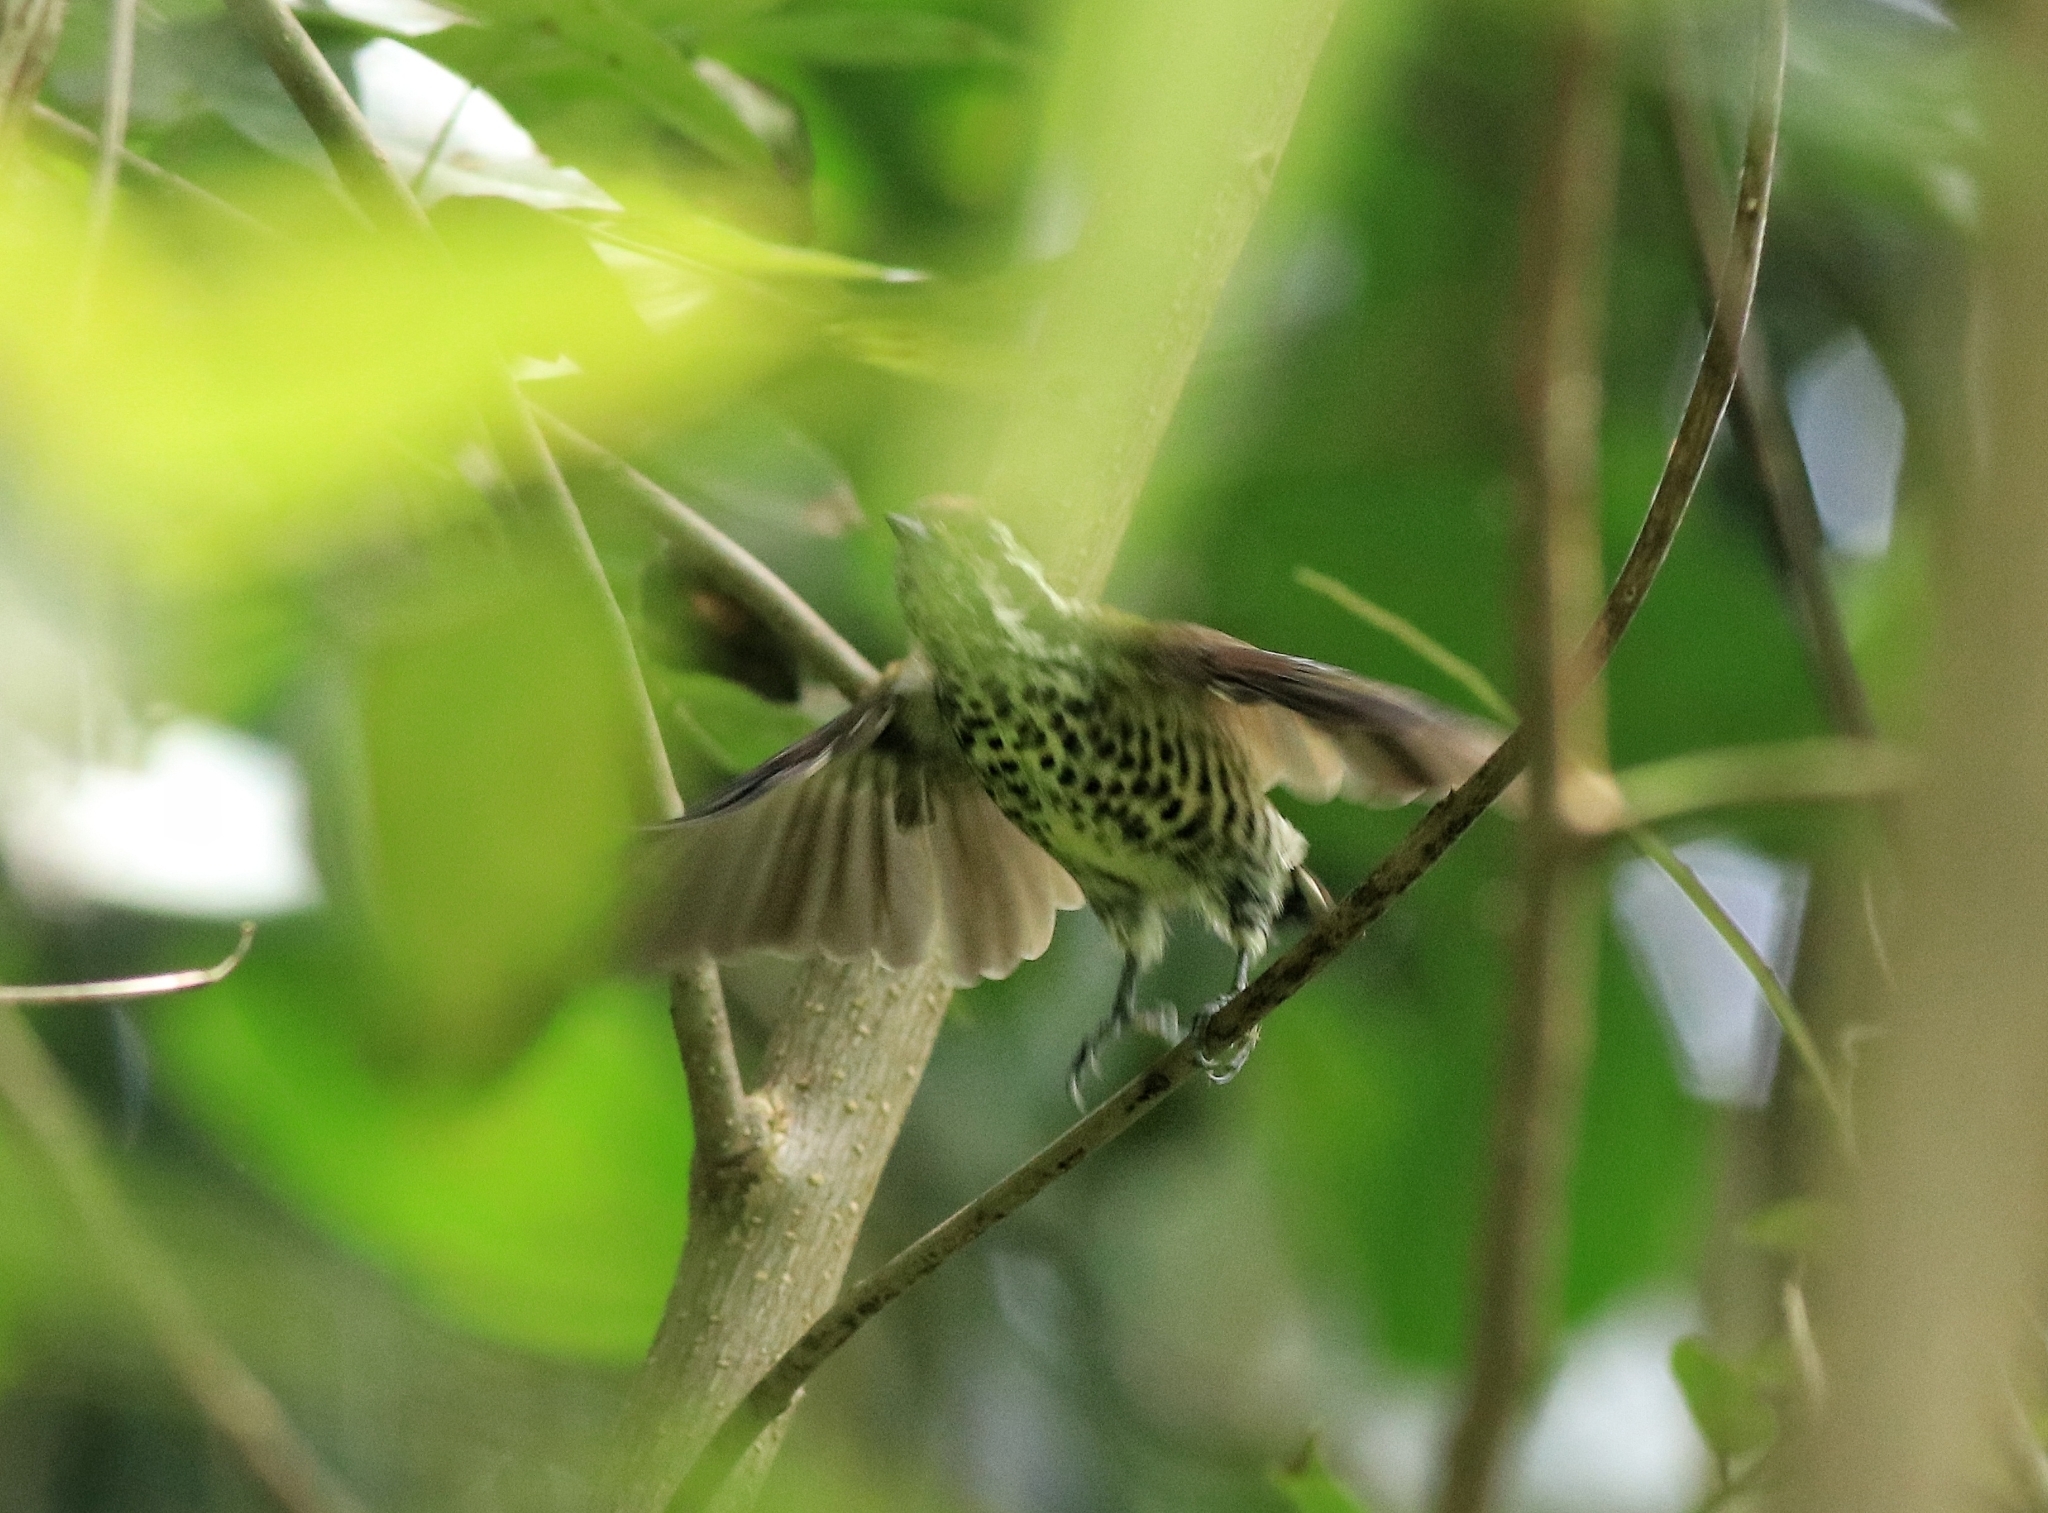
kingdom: Animalia
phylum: Chordata
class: Aves
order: Piciformes
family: Picidae
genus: Picumnus
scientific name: Picumnus innominatus
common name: Speckled piculet
